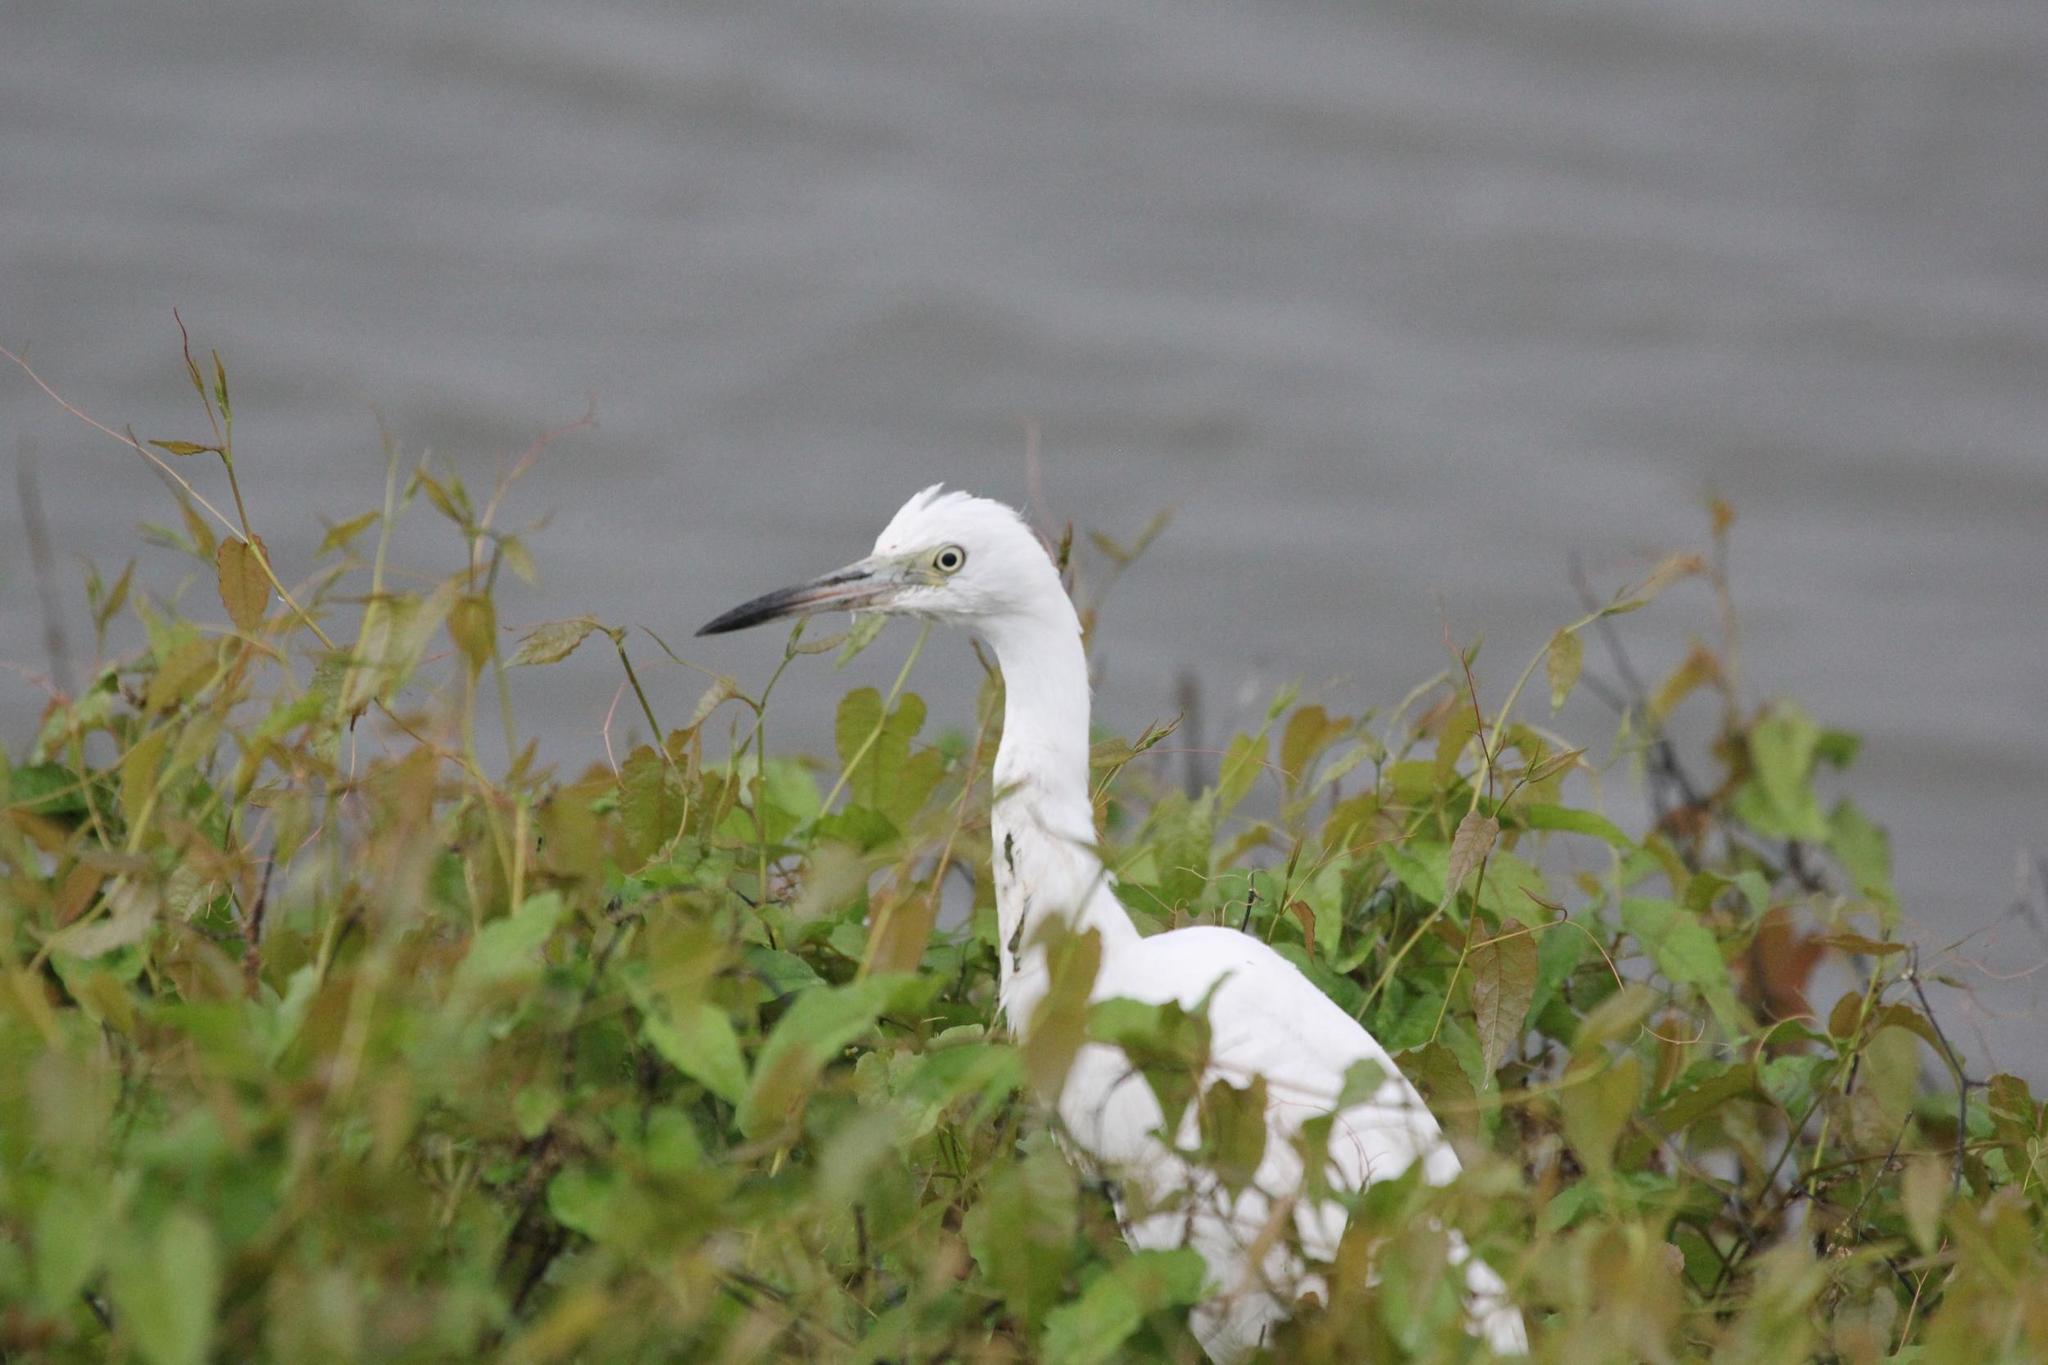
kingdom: Animalia
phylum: Chordata
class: Aves
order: Pelecaniformes
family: Ardeidae
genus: Egretta
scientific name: Egretta caerulea
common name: Little blue heron
